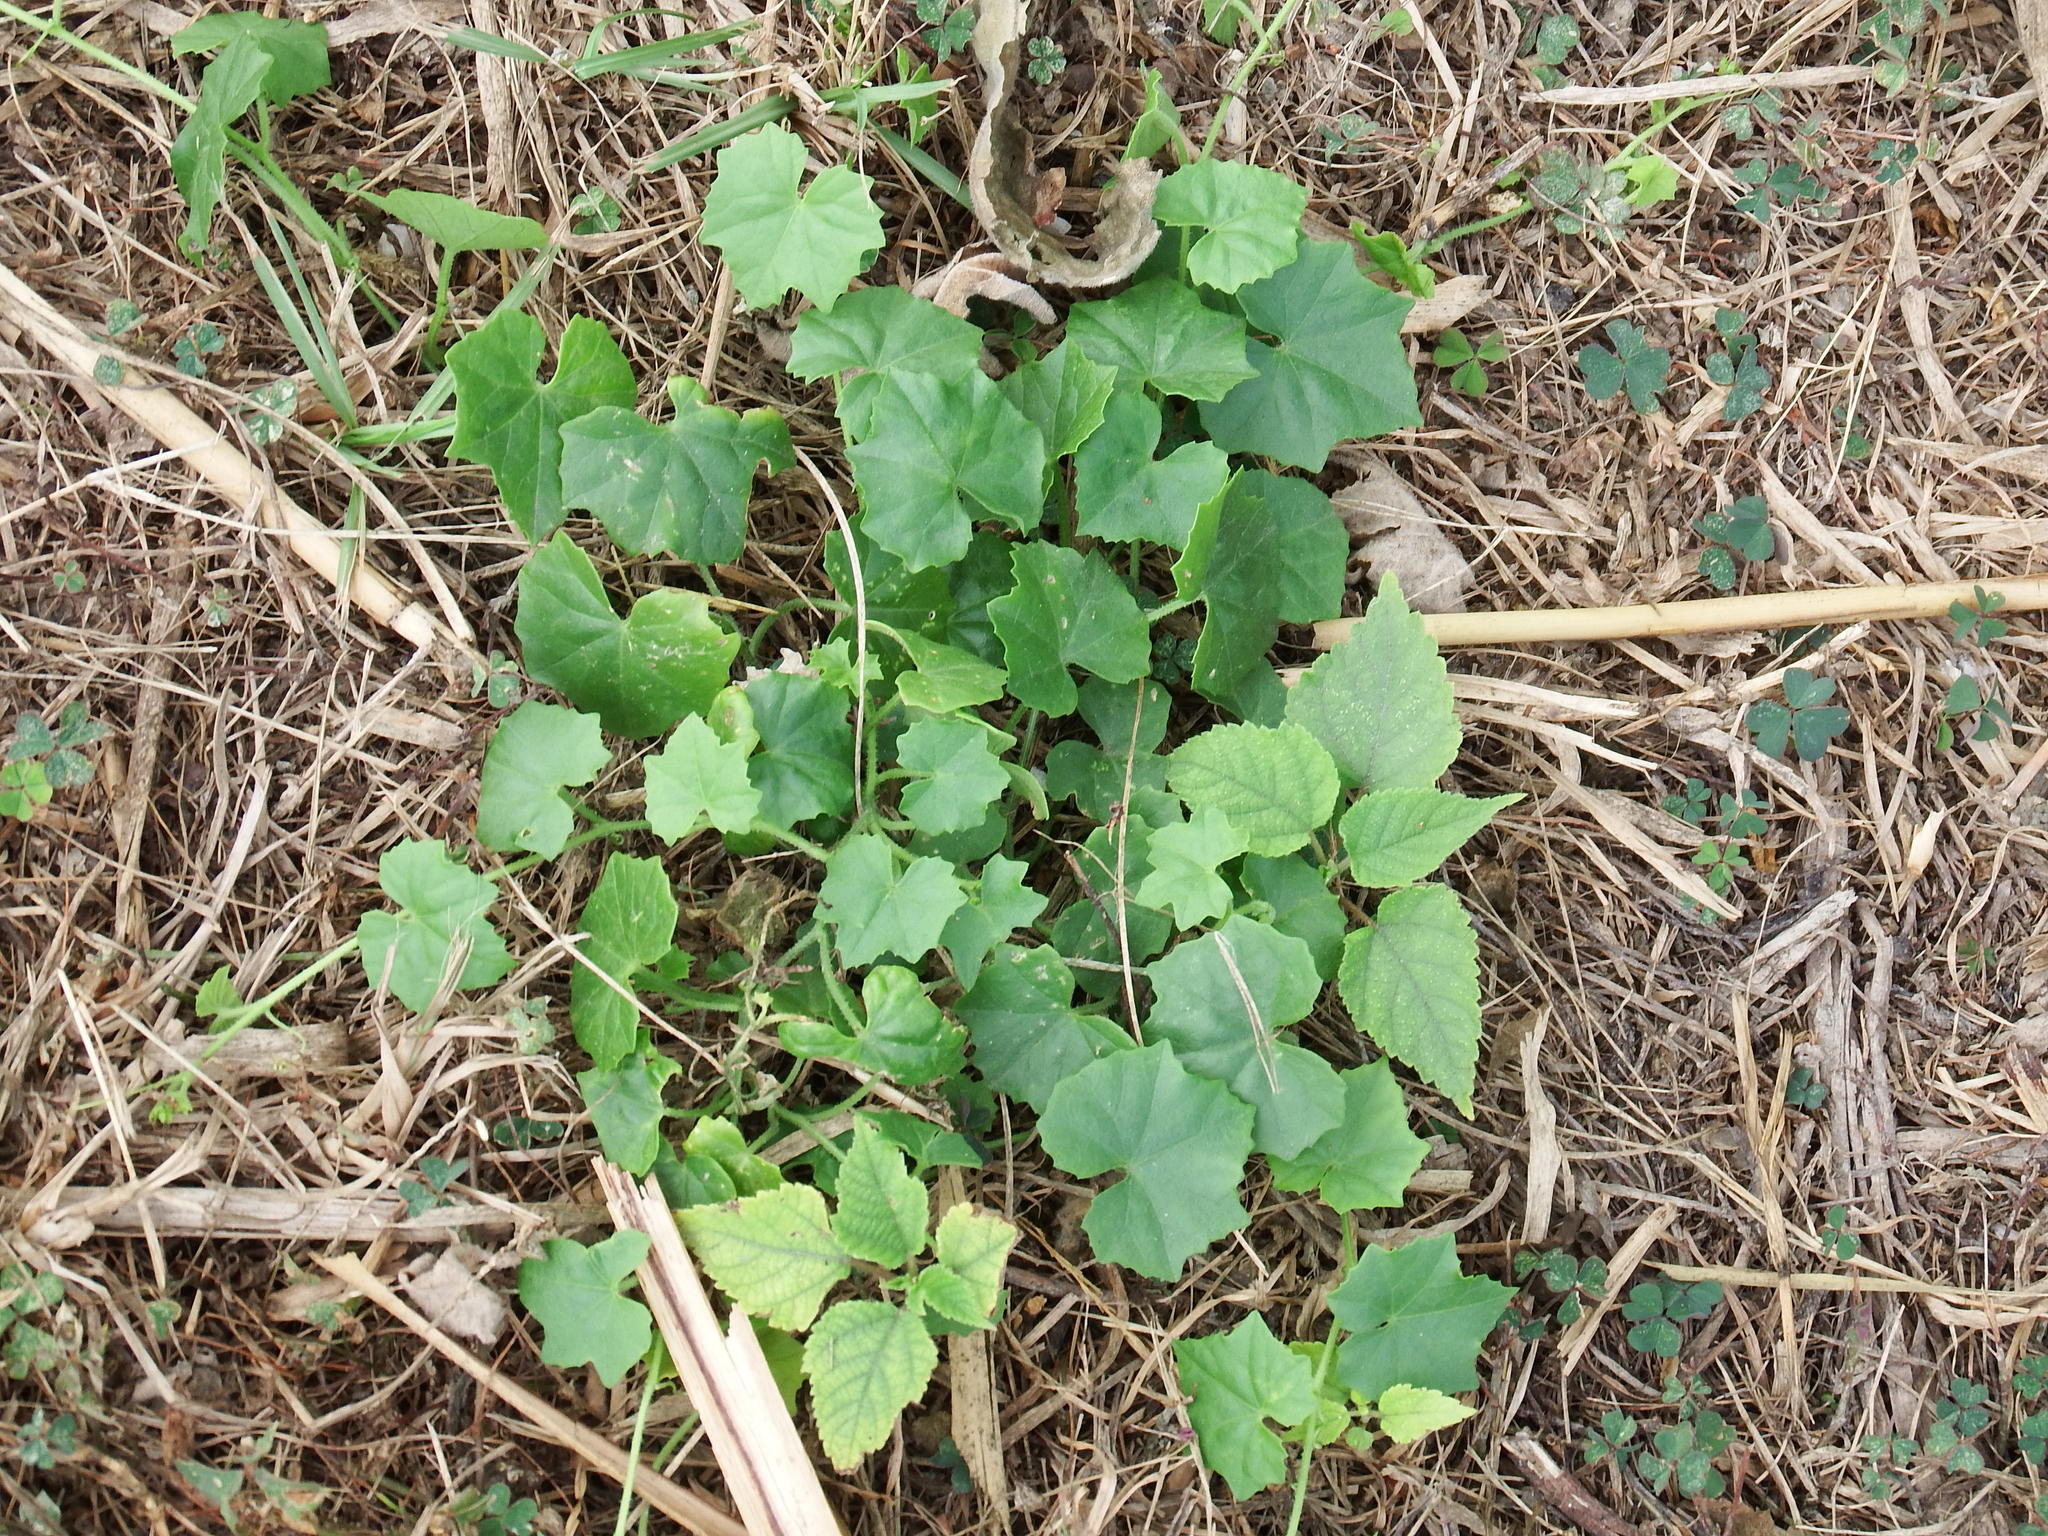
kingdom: Plantae
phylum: Tracheophyta
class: Magnoliopsida
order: Cucurbitales
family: Cucurbitaceae
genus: Melothria
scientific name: Melothria pendula
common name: Creeping-cucumber
